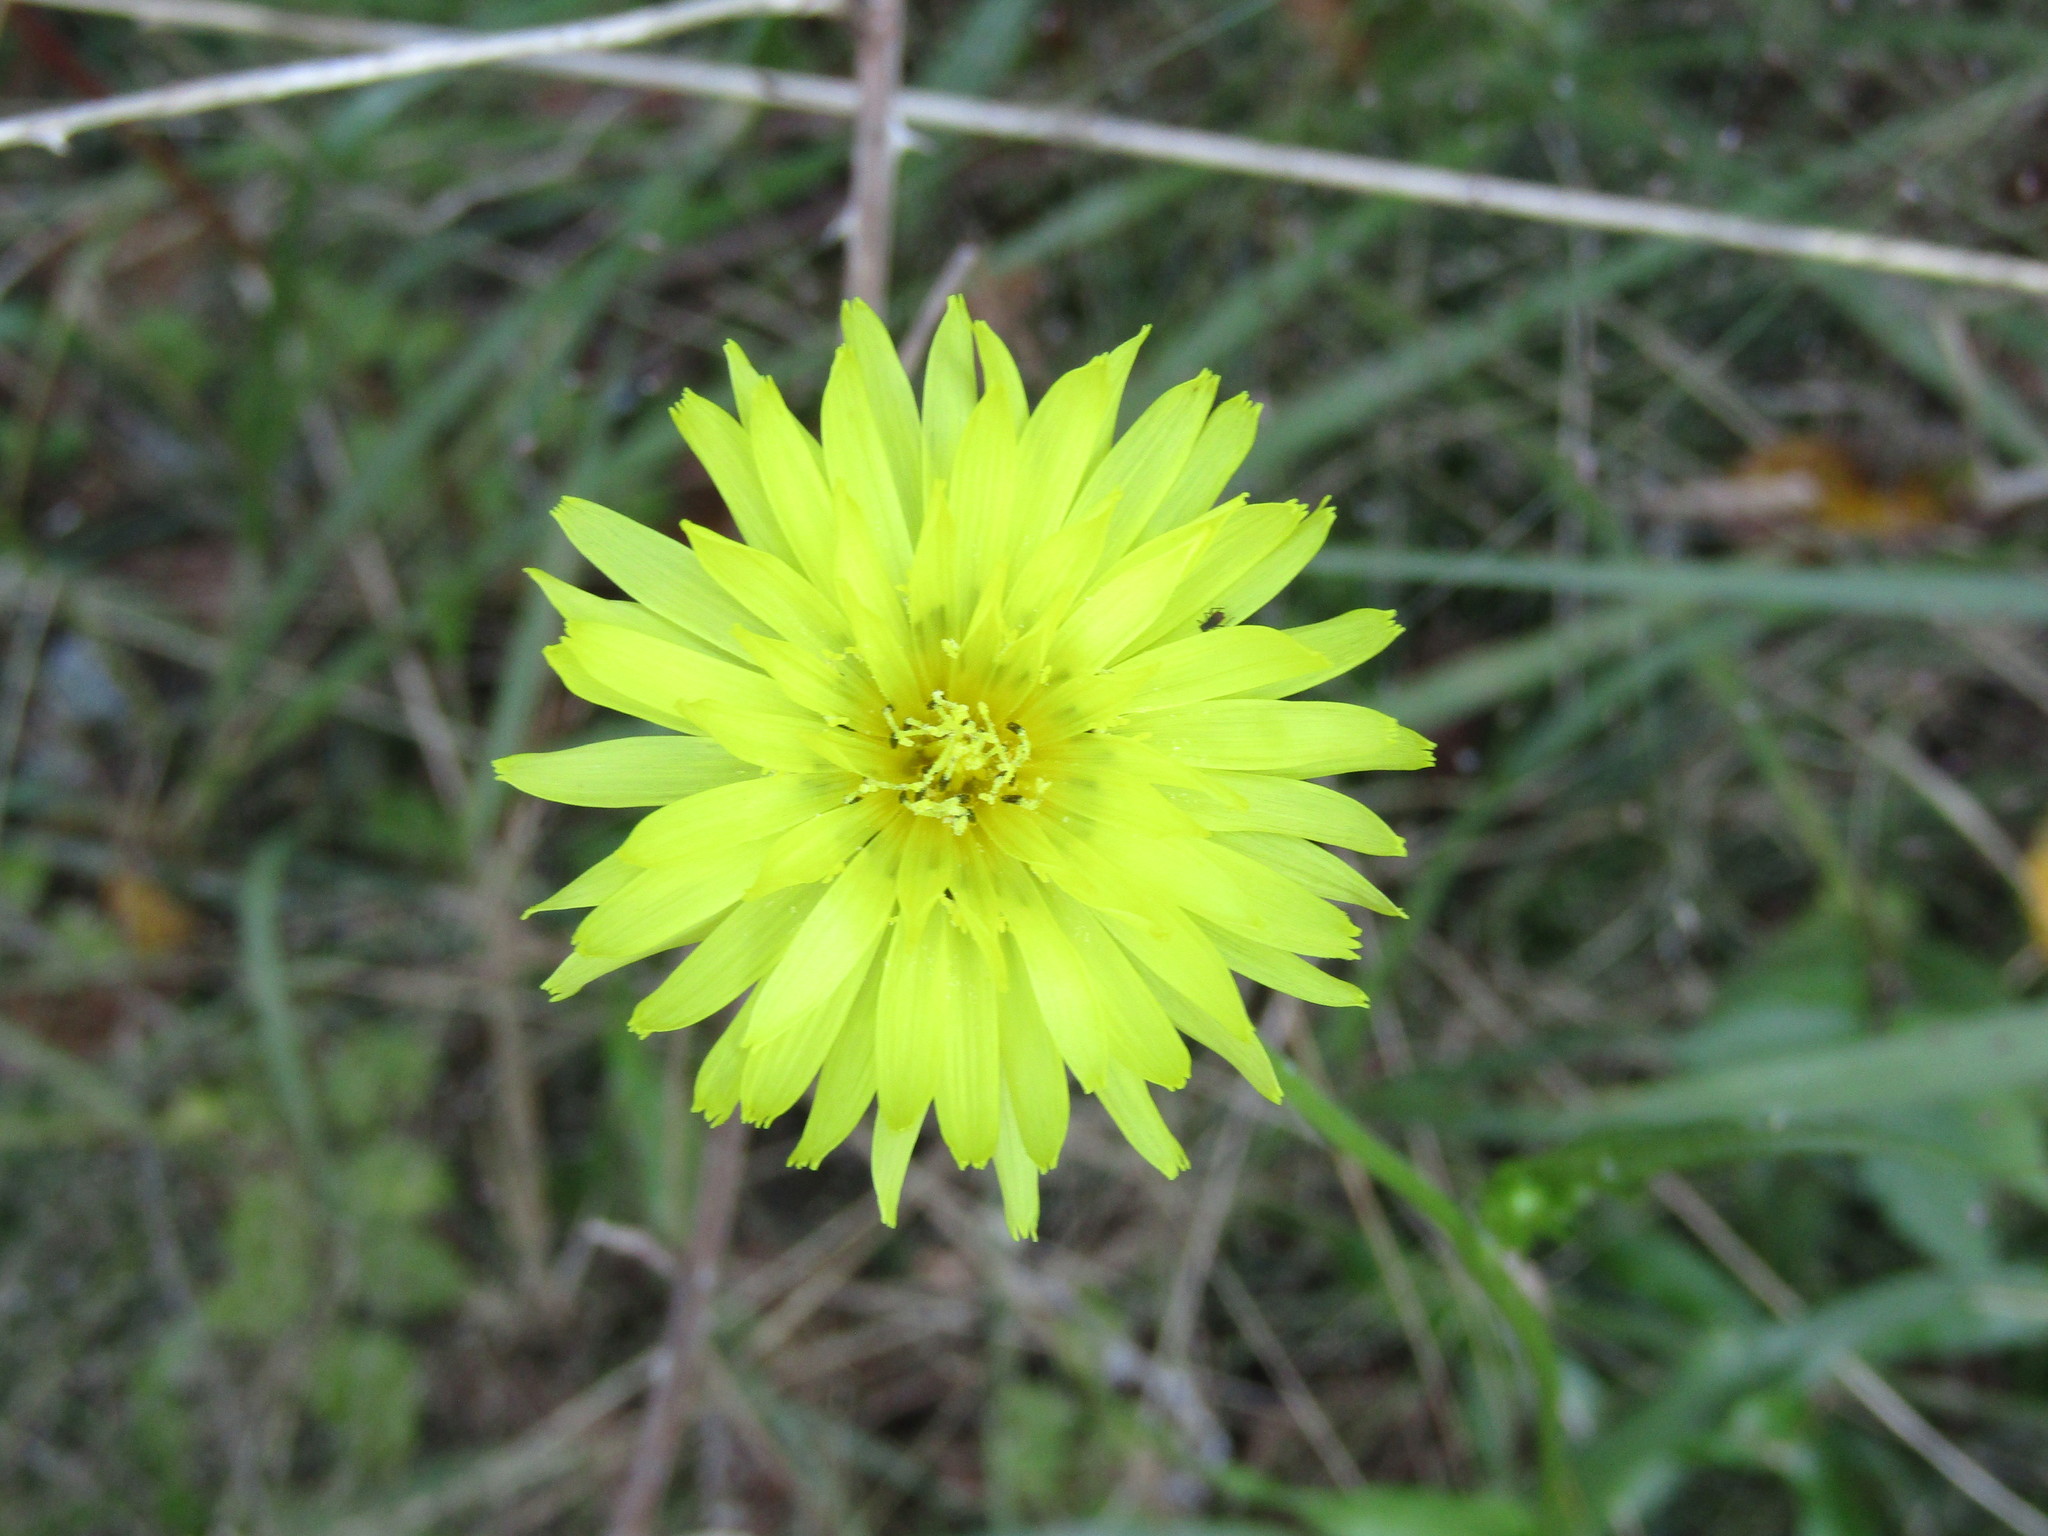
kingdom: Plantae
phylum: Tracheophyta
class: Magnoliopsida
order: Asterales
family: Asteraceae
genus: Pyrrhopappus
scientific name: Pyrrhopappus carolinianus
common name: Carolina desert-chicory
